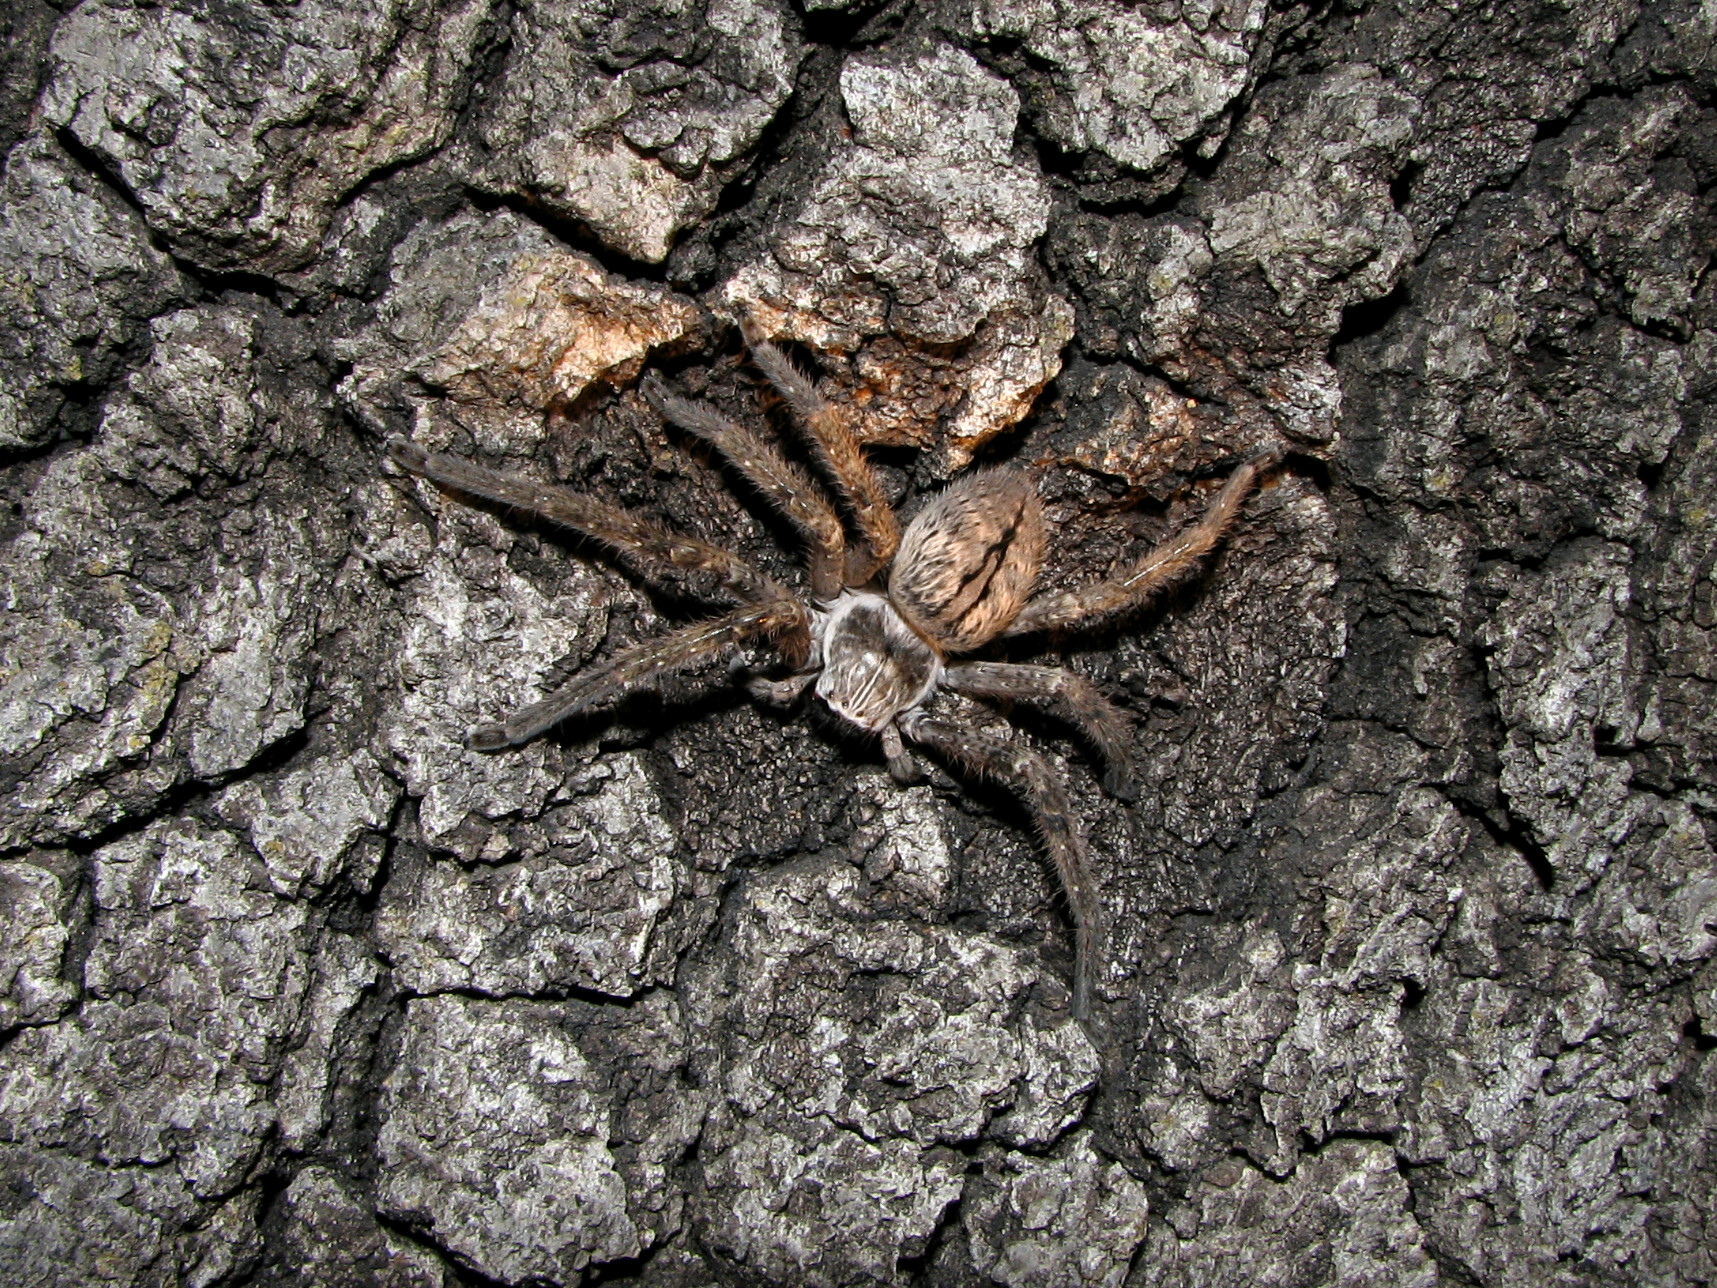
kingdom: Animalia
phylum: Arthropoda
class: Arachnida
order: Araneae
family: Sparassidae
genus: Olios
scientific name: Olios giganteus
